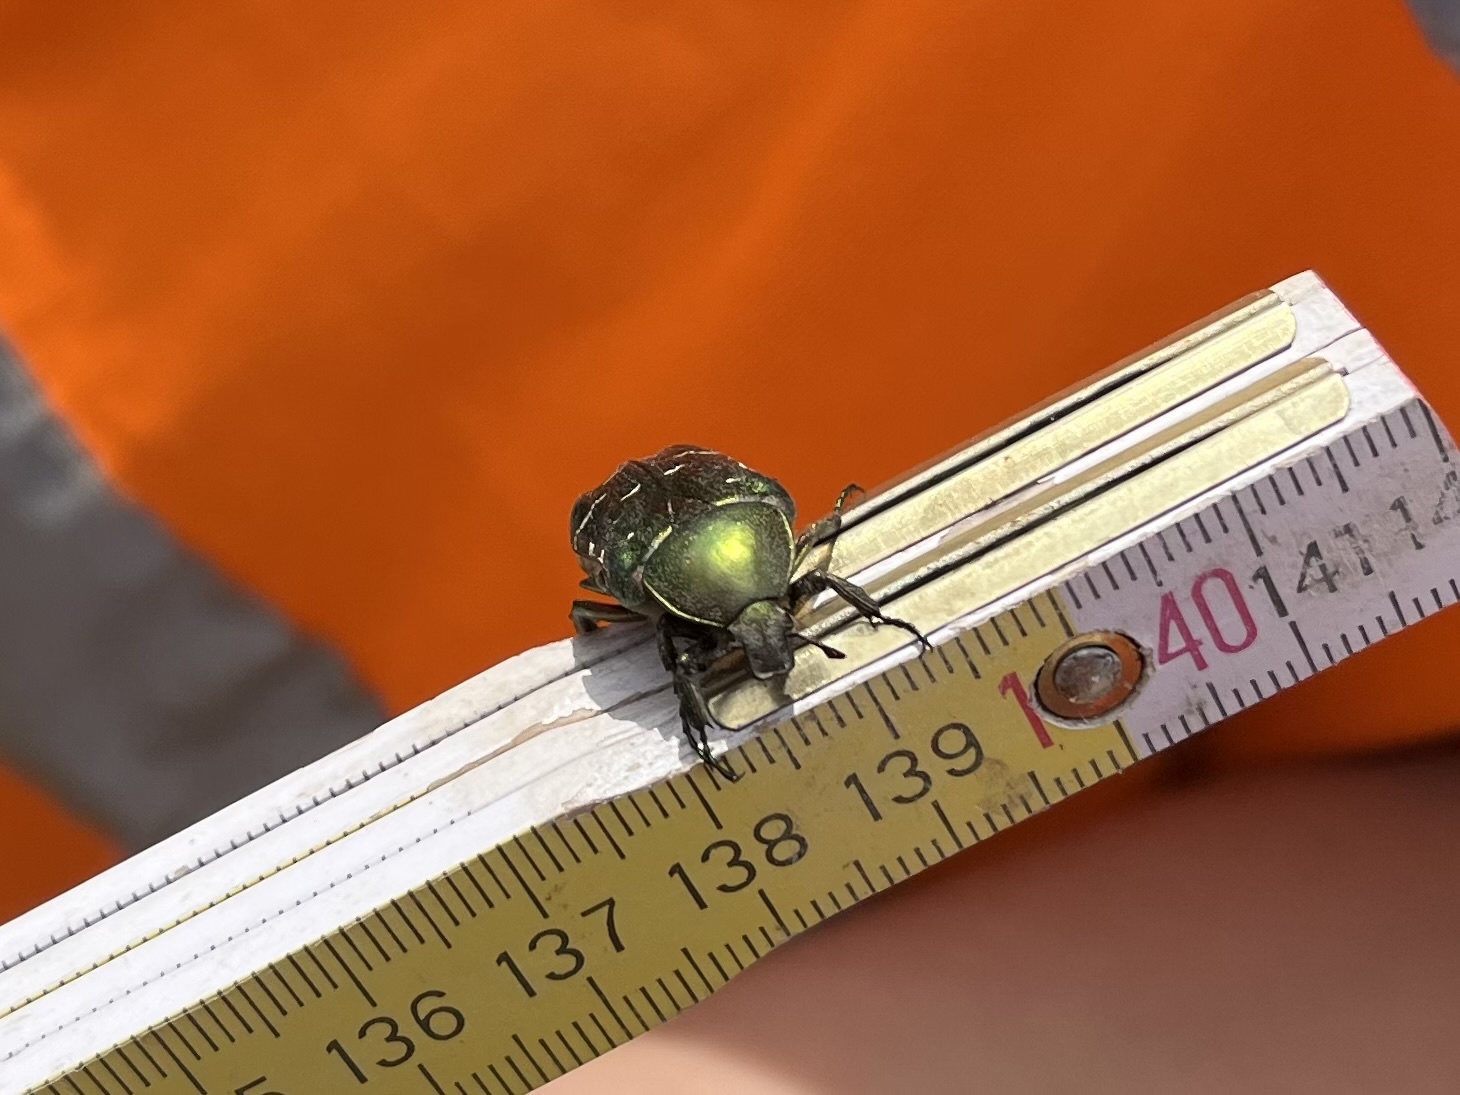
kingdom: Animalia
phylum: Arthropoda
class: Insecta
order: Coleoptera
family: Scarabaeidae
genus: Cetonia
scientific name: Cetonia aurata
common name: Rose chafer
